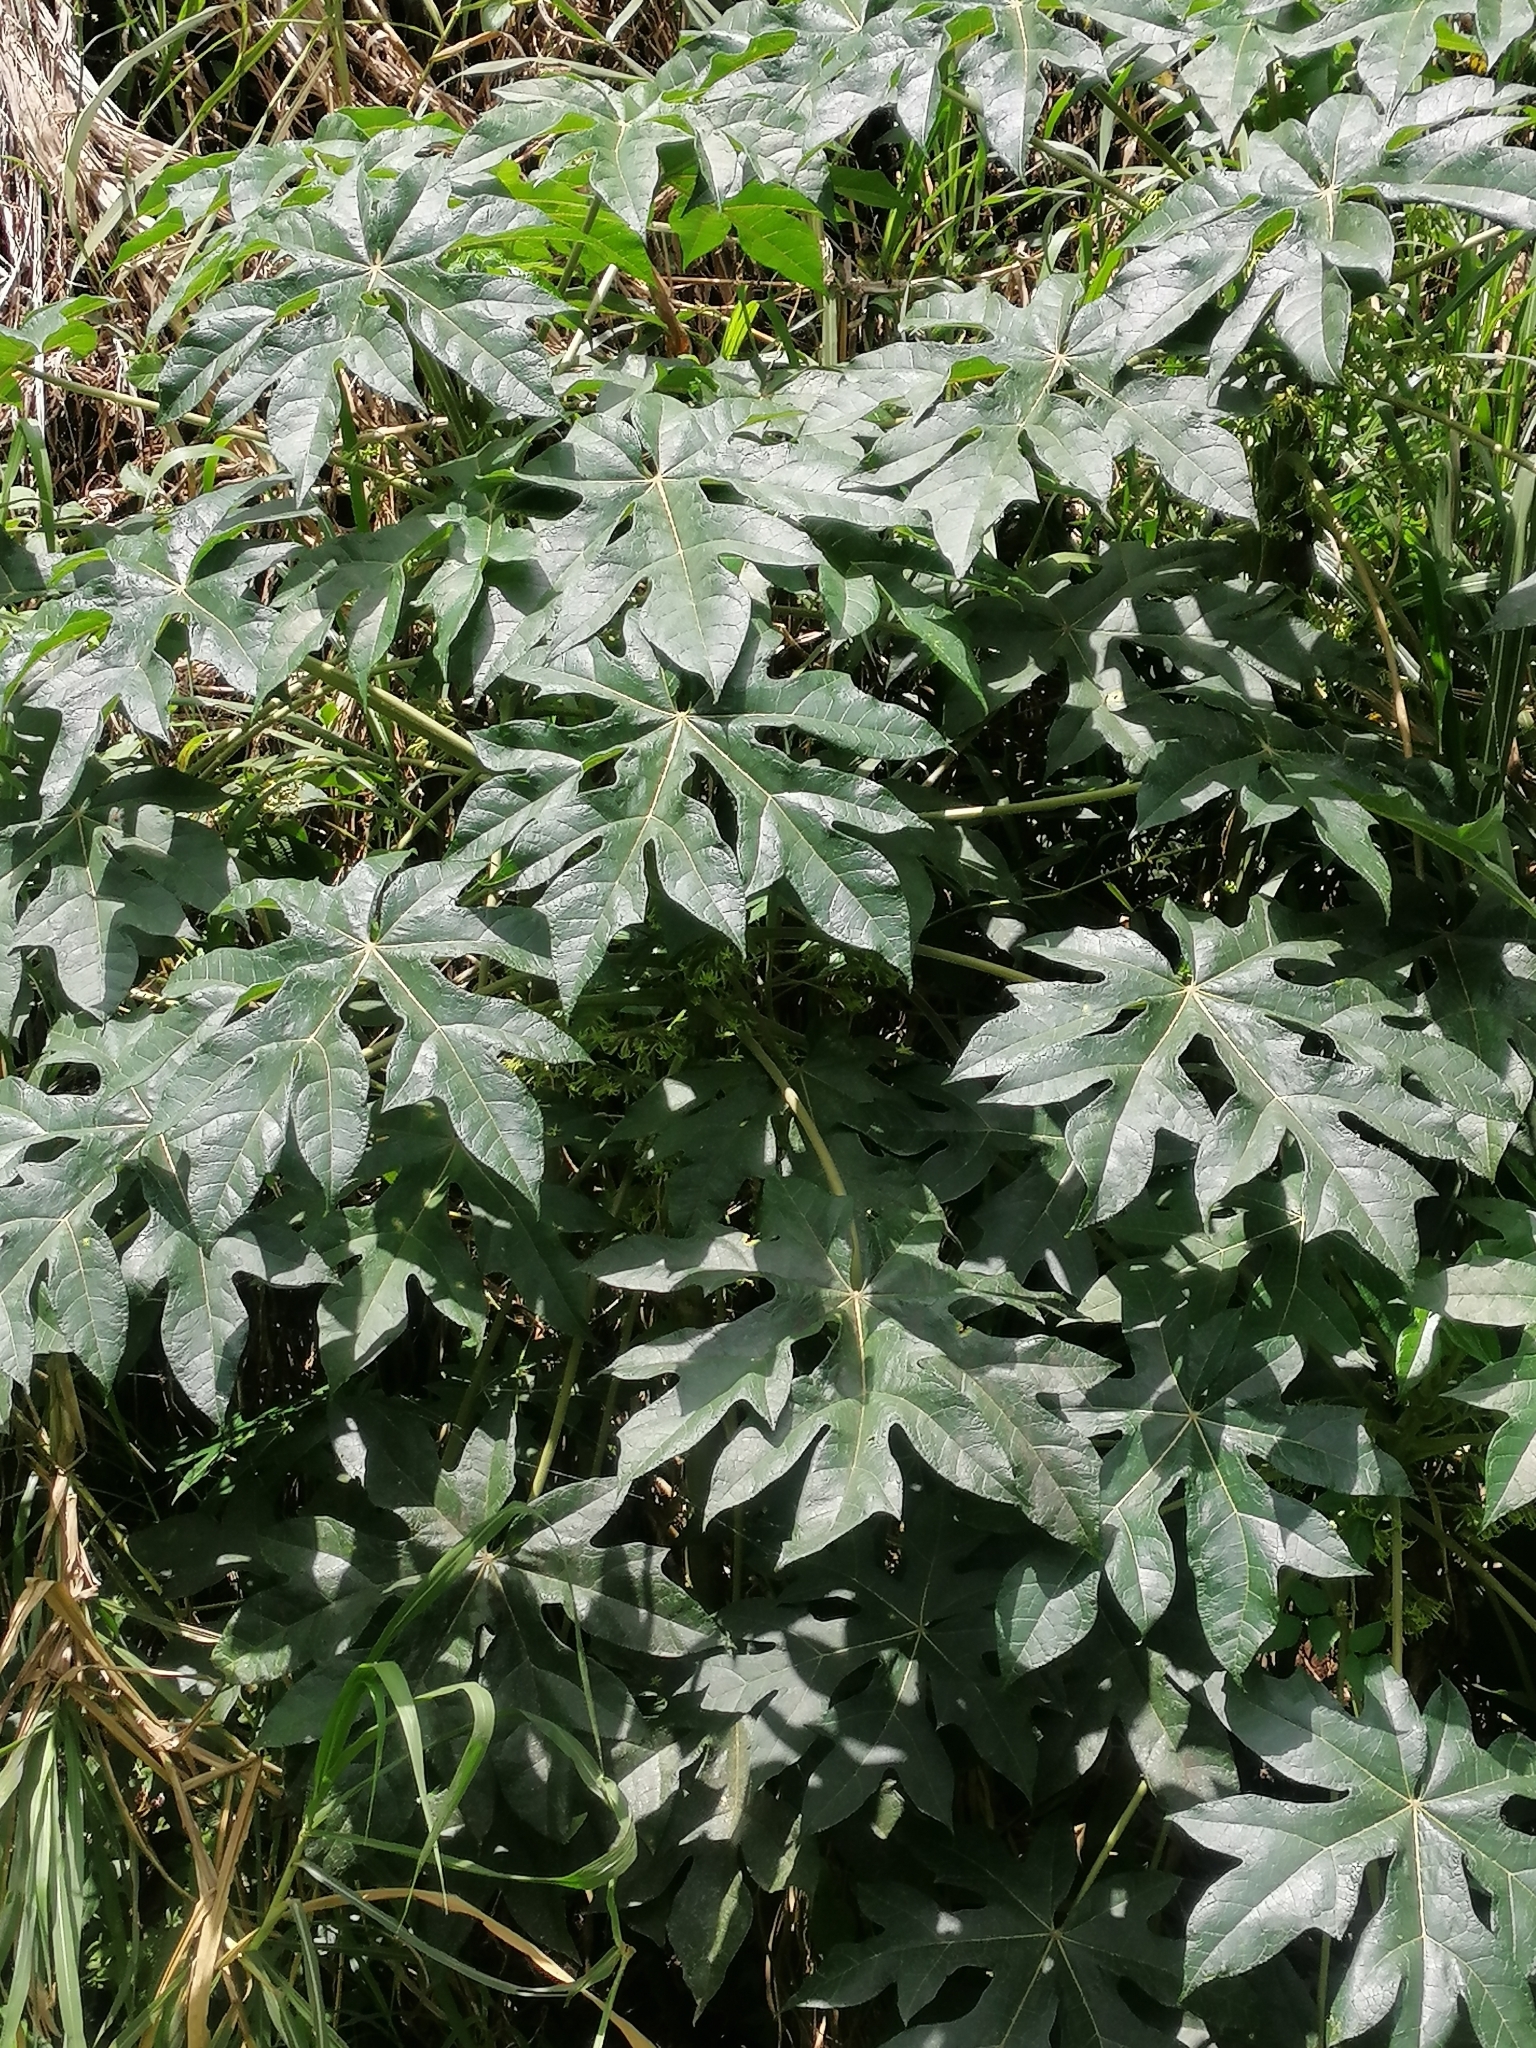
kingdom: Plantae
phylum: Tracheophyta
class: Magnoliopsida
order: Brassicales
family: Caricaceae
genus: Vasconcellea
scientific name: Vasconcellea pubescens
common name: Mountain papaya
